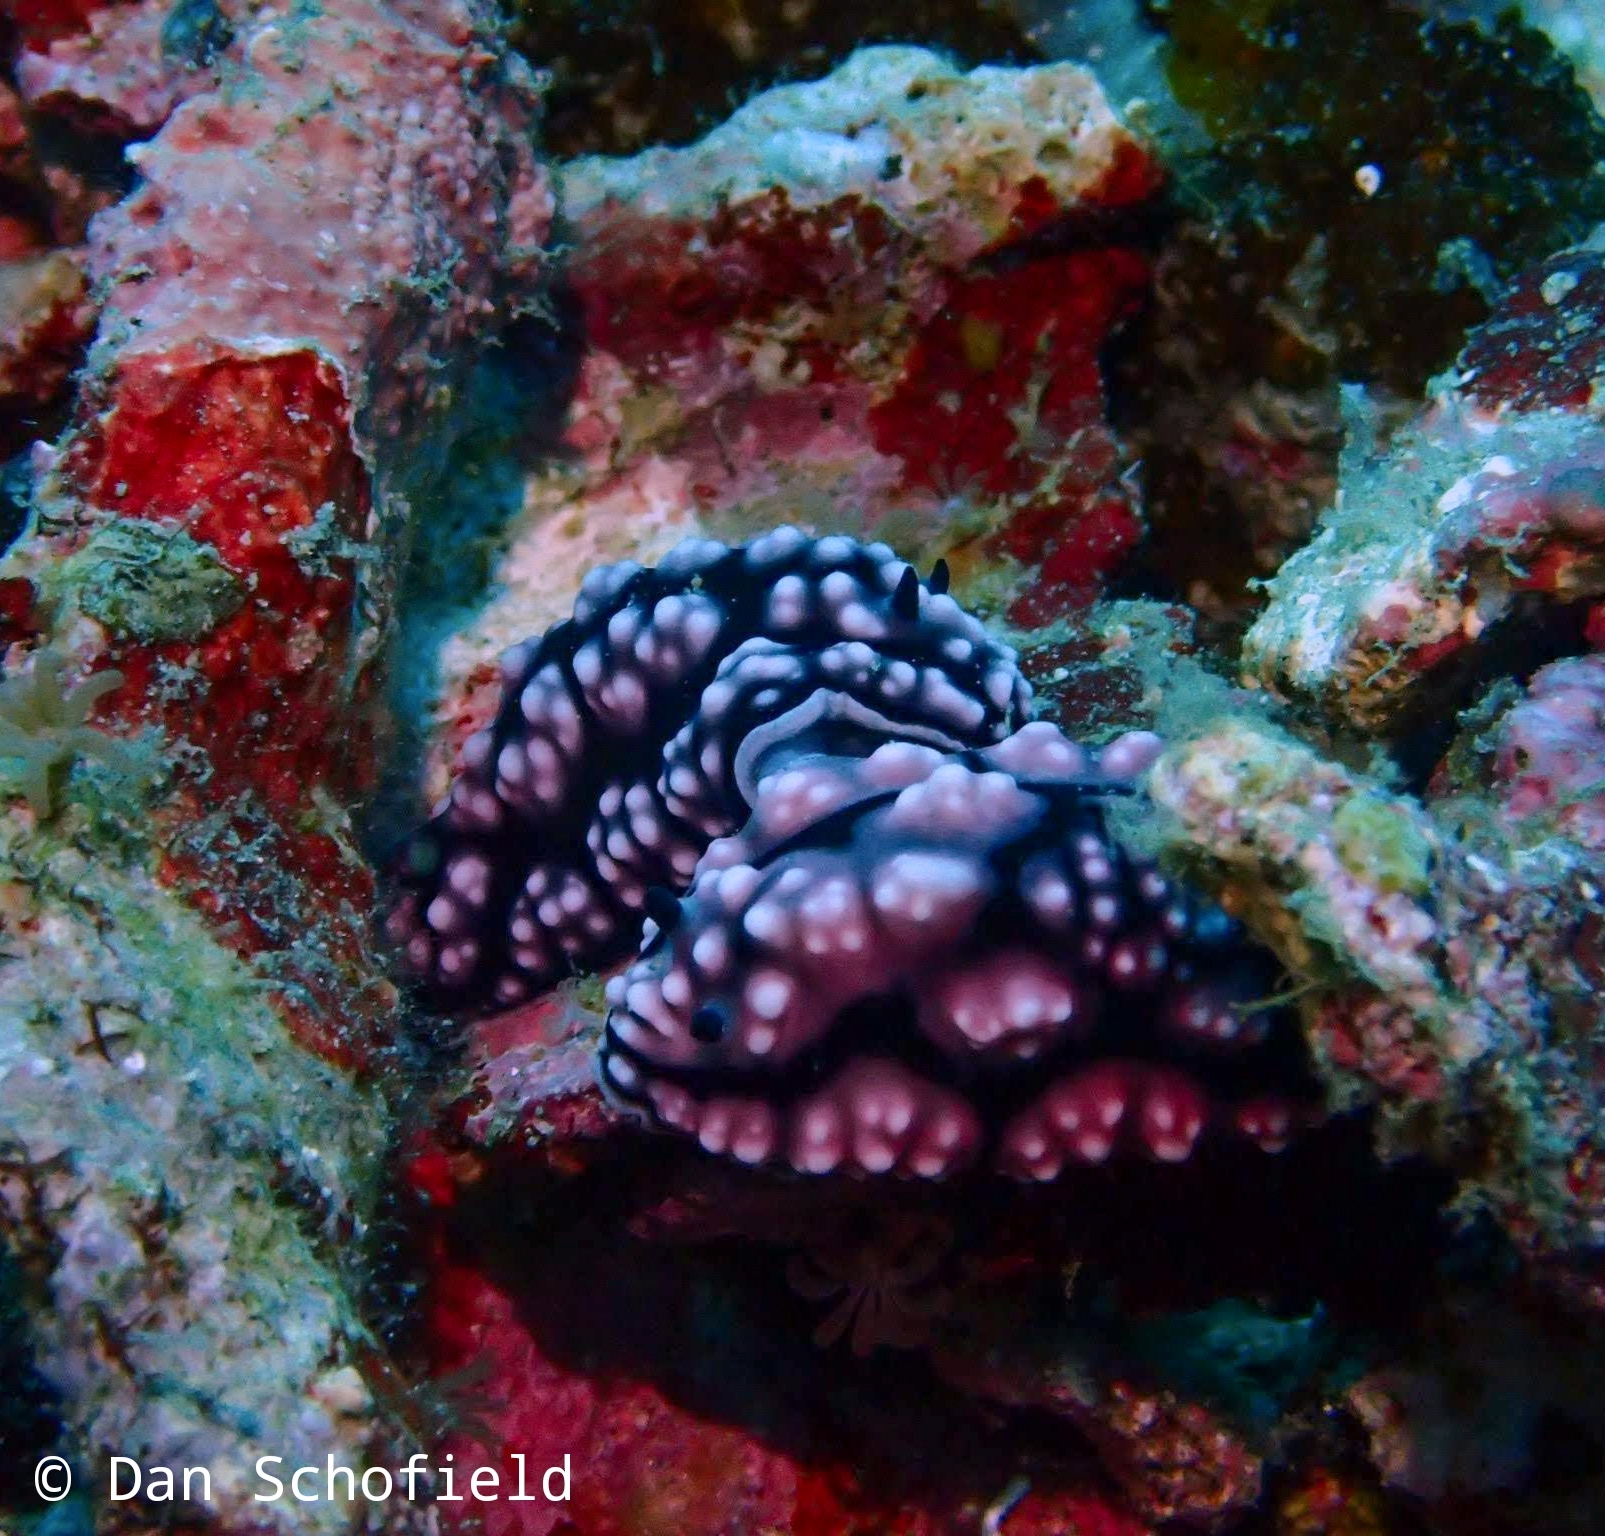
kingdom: Animalia
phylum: Mollusca
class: Gastropoda
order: Nudibranchia
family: Phyllidiidae
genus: Phyllidiella
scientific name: Phyllidiella pustulosa
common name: Pustular phyllidia
